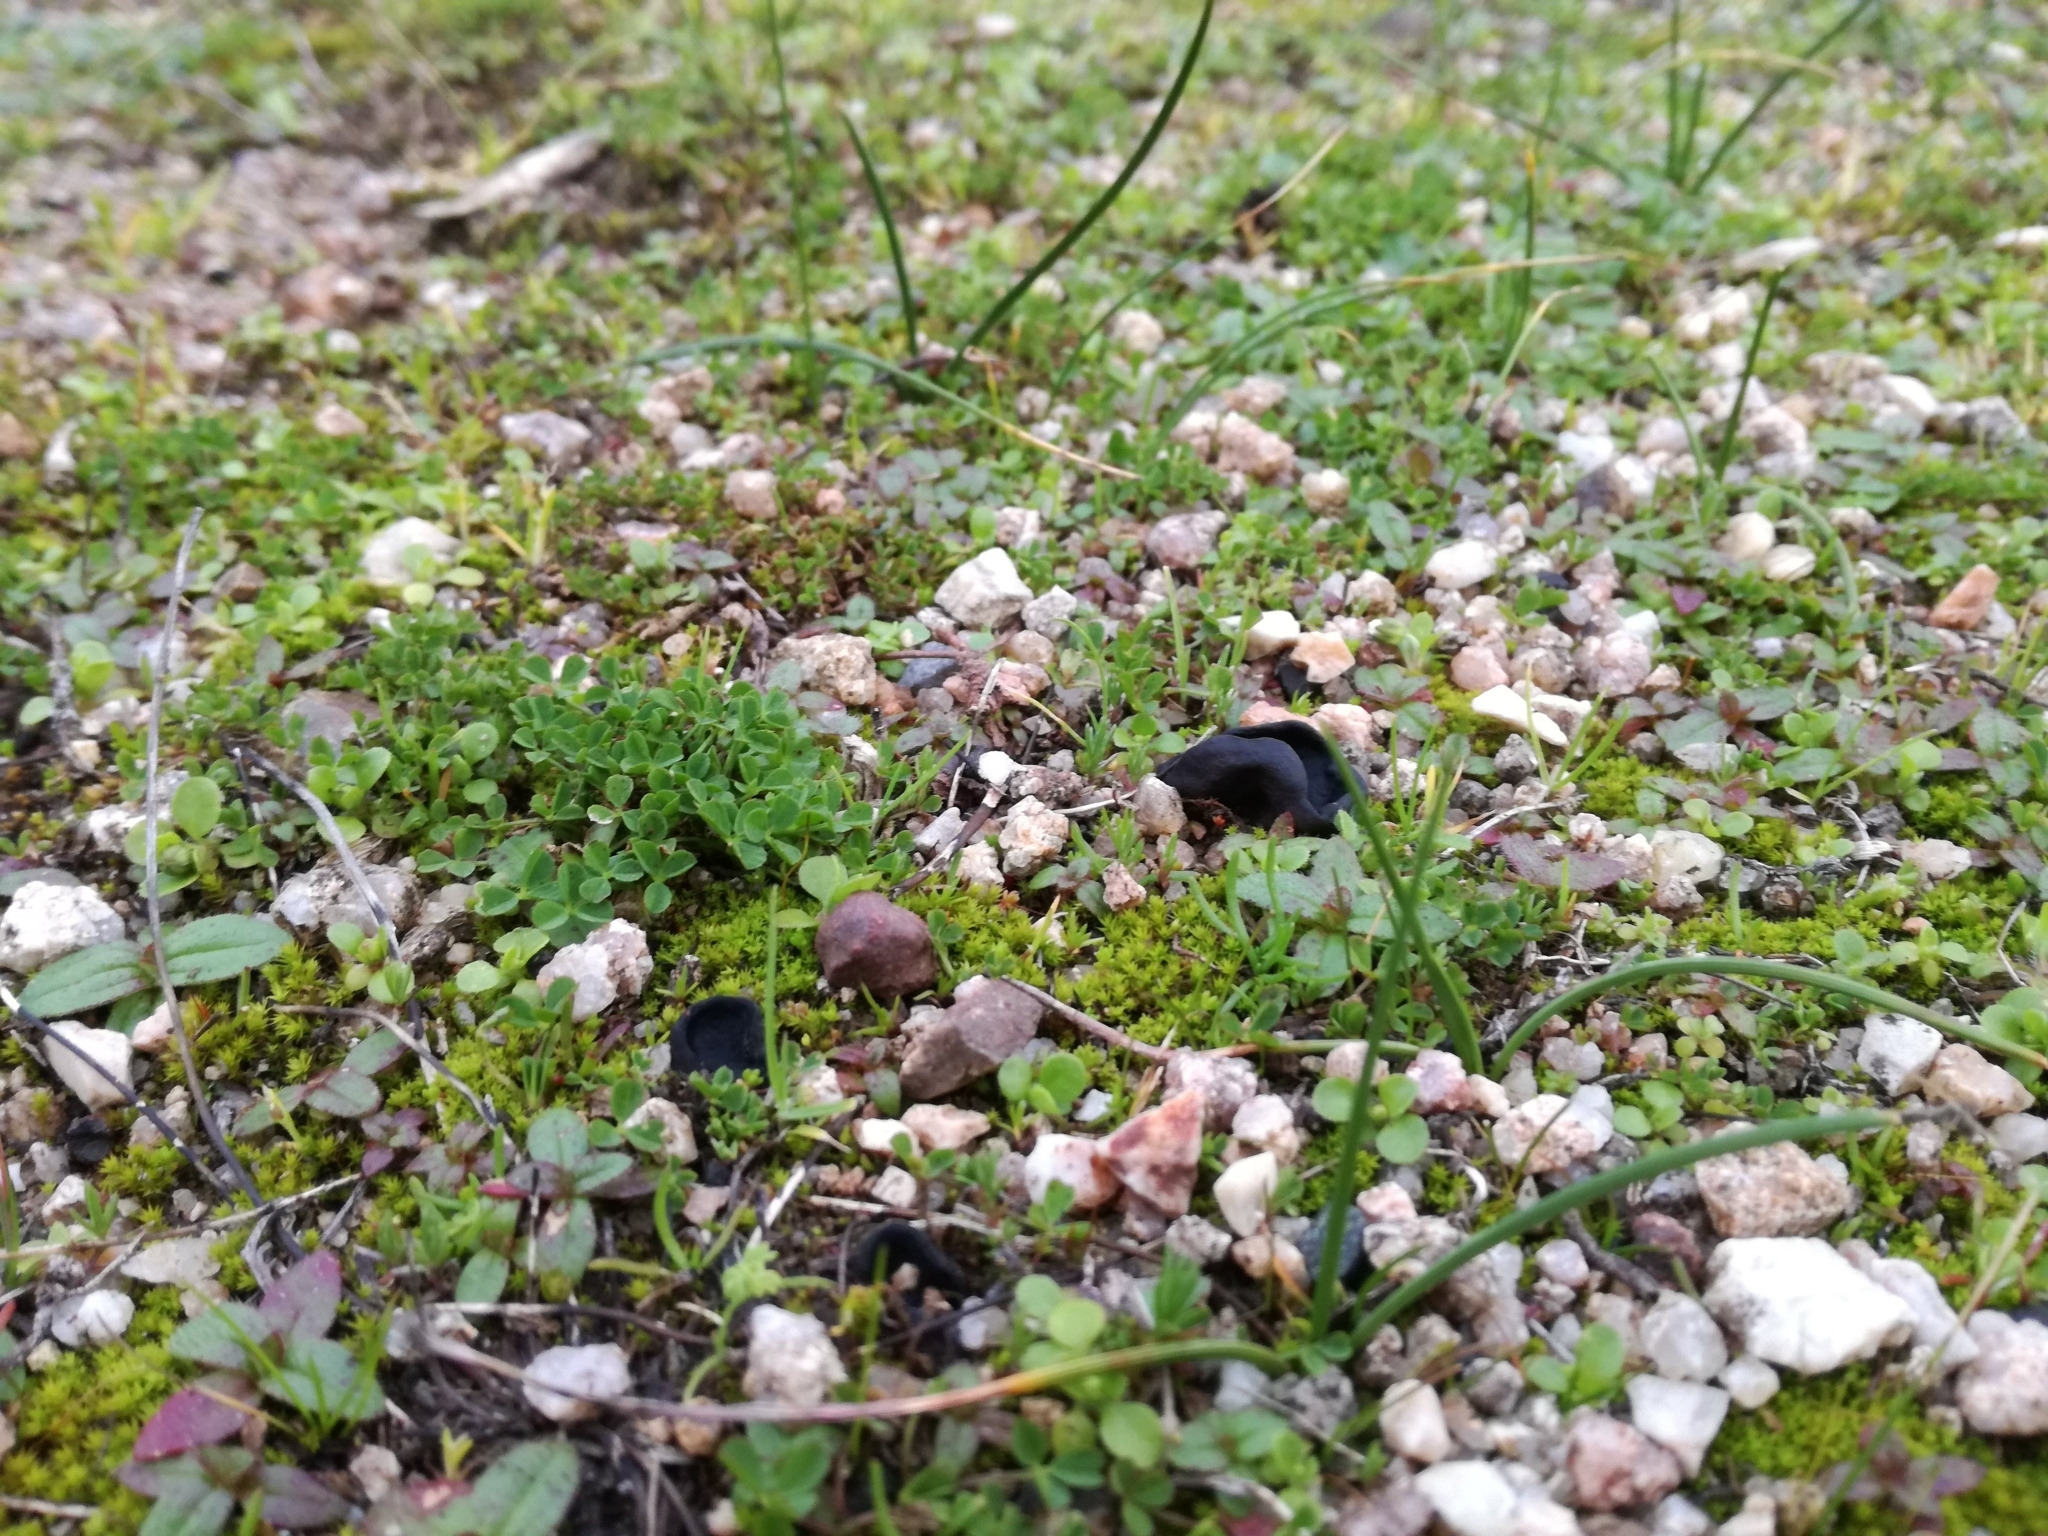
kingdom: Fungi
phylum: Ascomycota
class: Pezizomycetes
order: Pezizales
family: Helvellaceae
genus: Helvella
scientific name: Helvella helvellula
